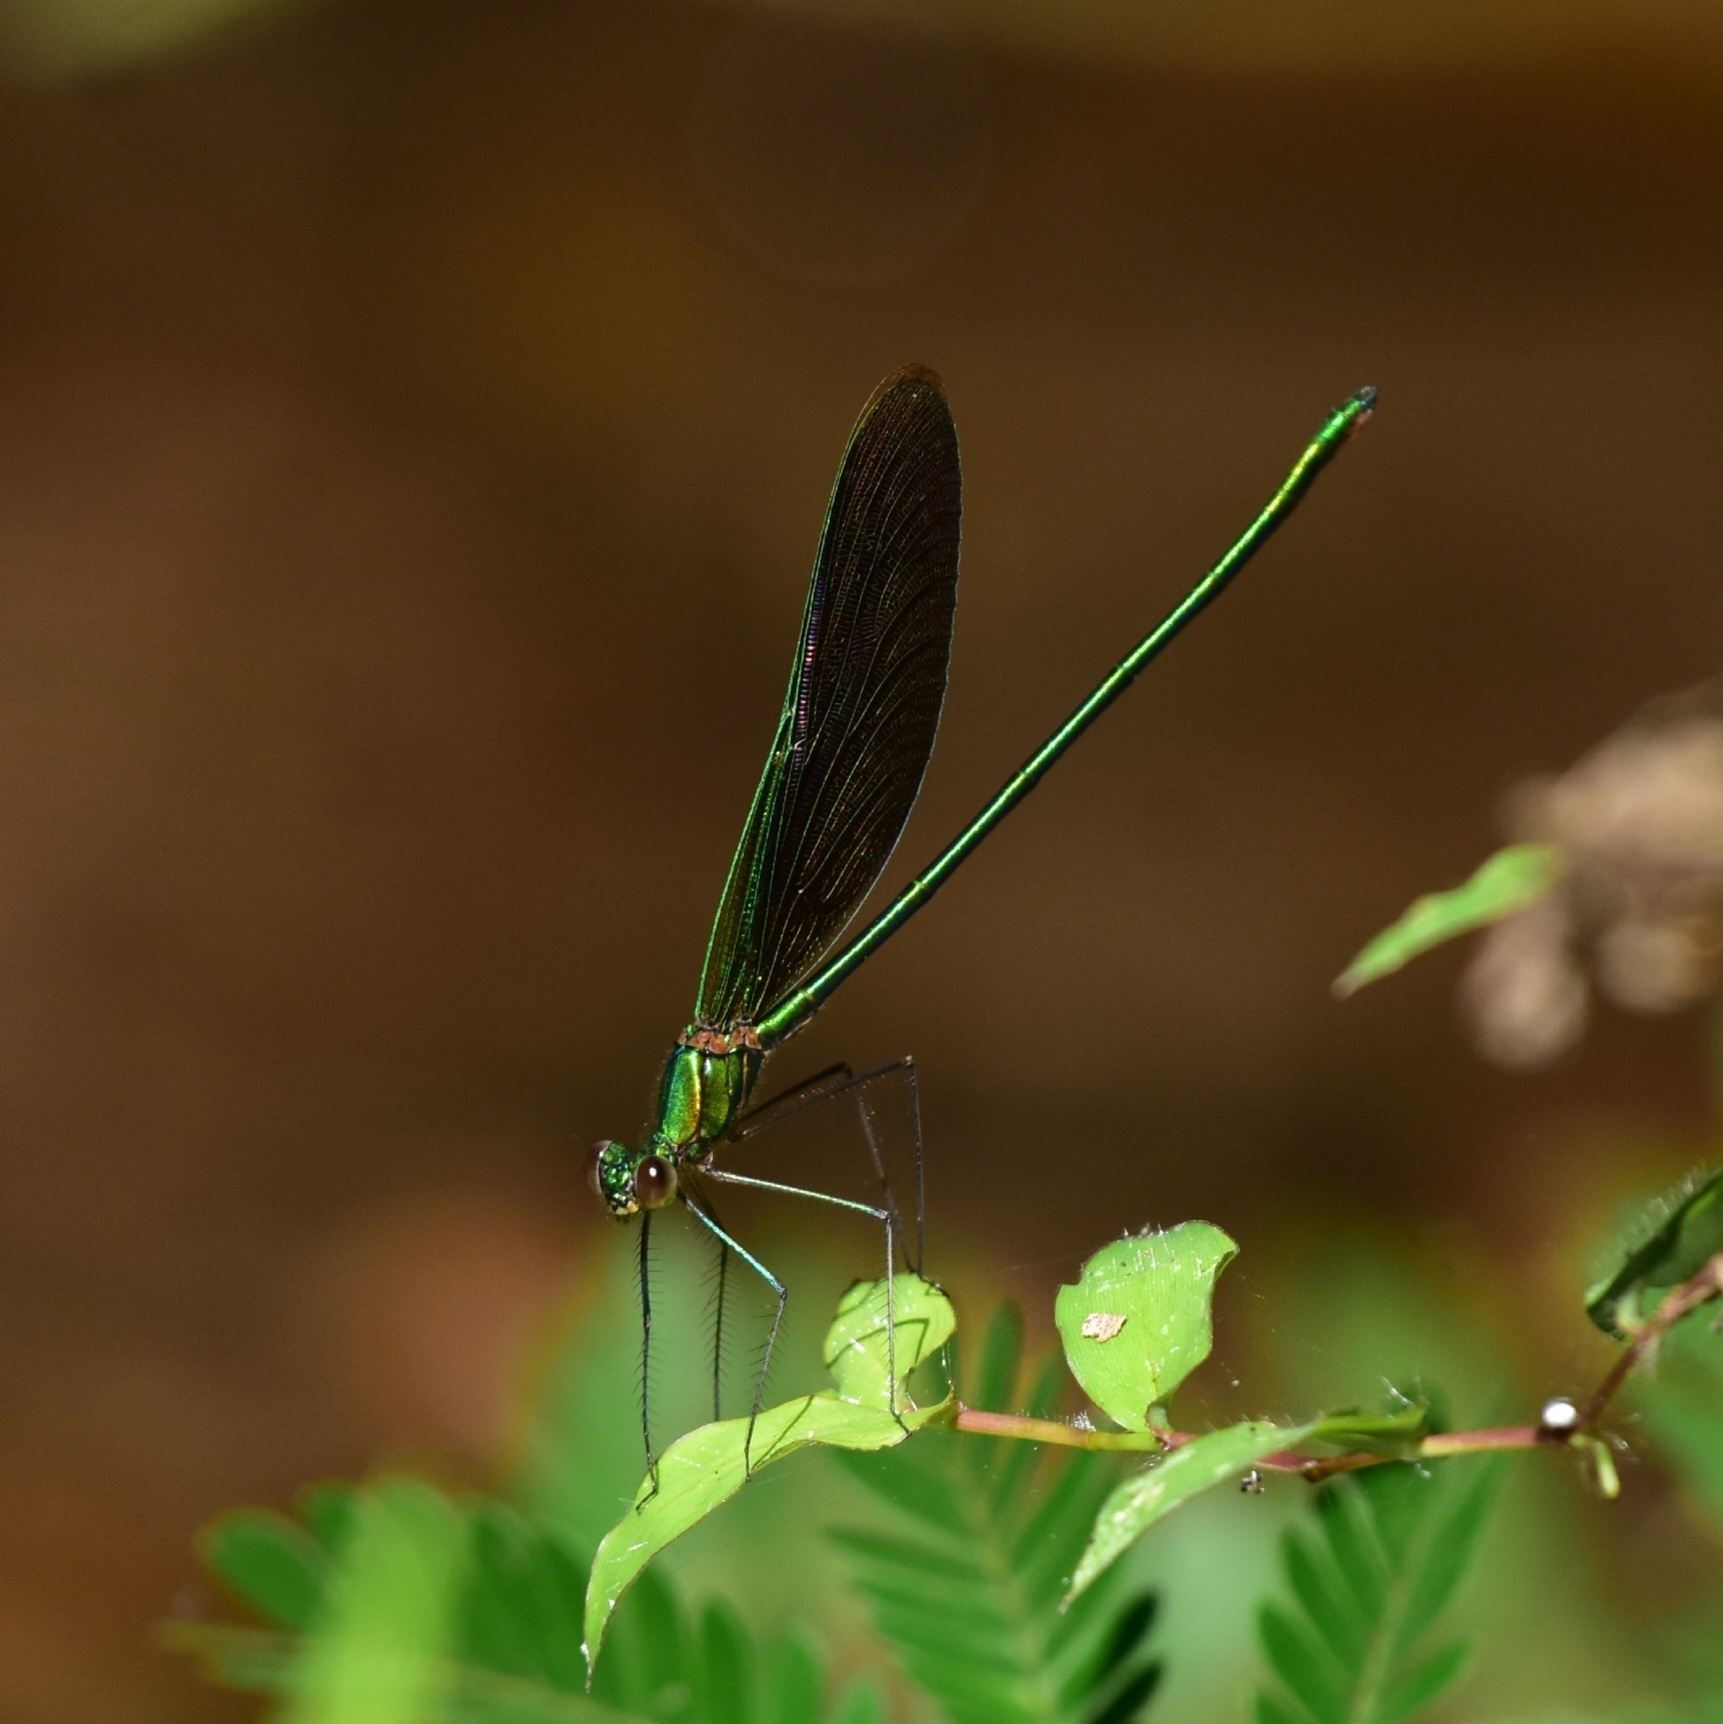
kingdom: Animalia
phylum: Arthropoda
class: Insecta
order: Odonata
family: Calopterygidae
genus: Neurobasis
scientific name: Neurobasis chinensis
